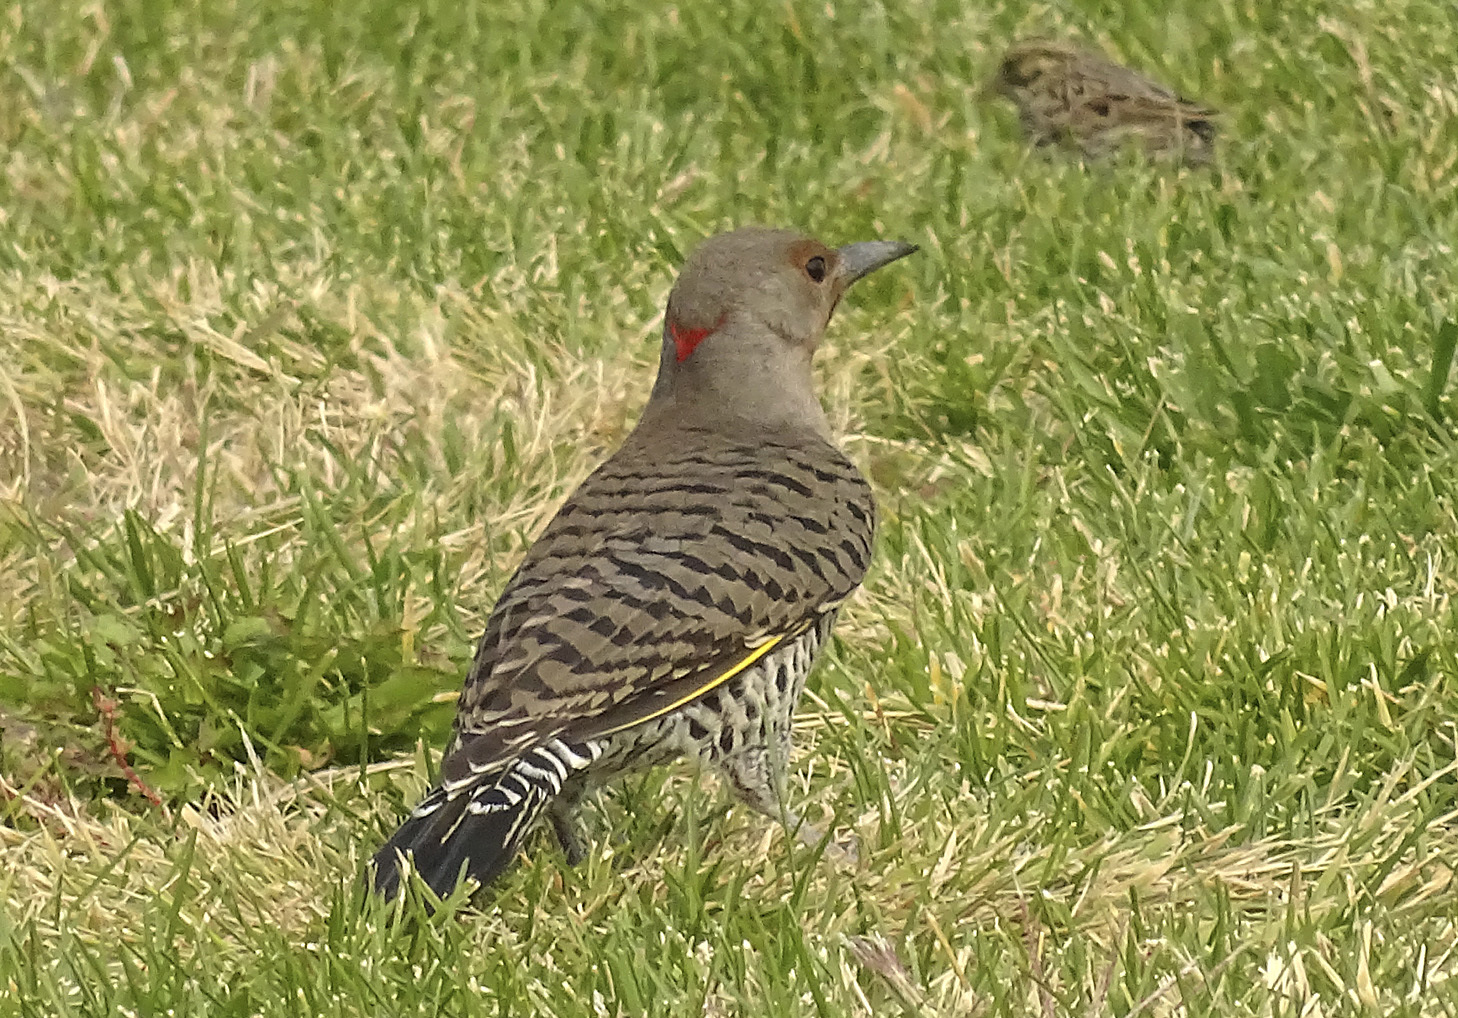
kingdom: Animalia
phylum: Chordata
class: Aves
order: Piciformes
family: Picidae
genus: Colaptes
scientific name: Colaptes auratus
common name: Northern flicker
